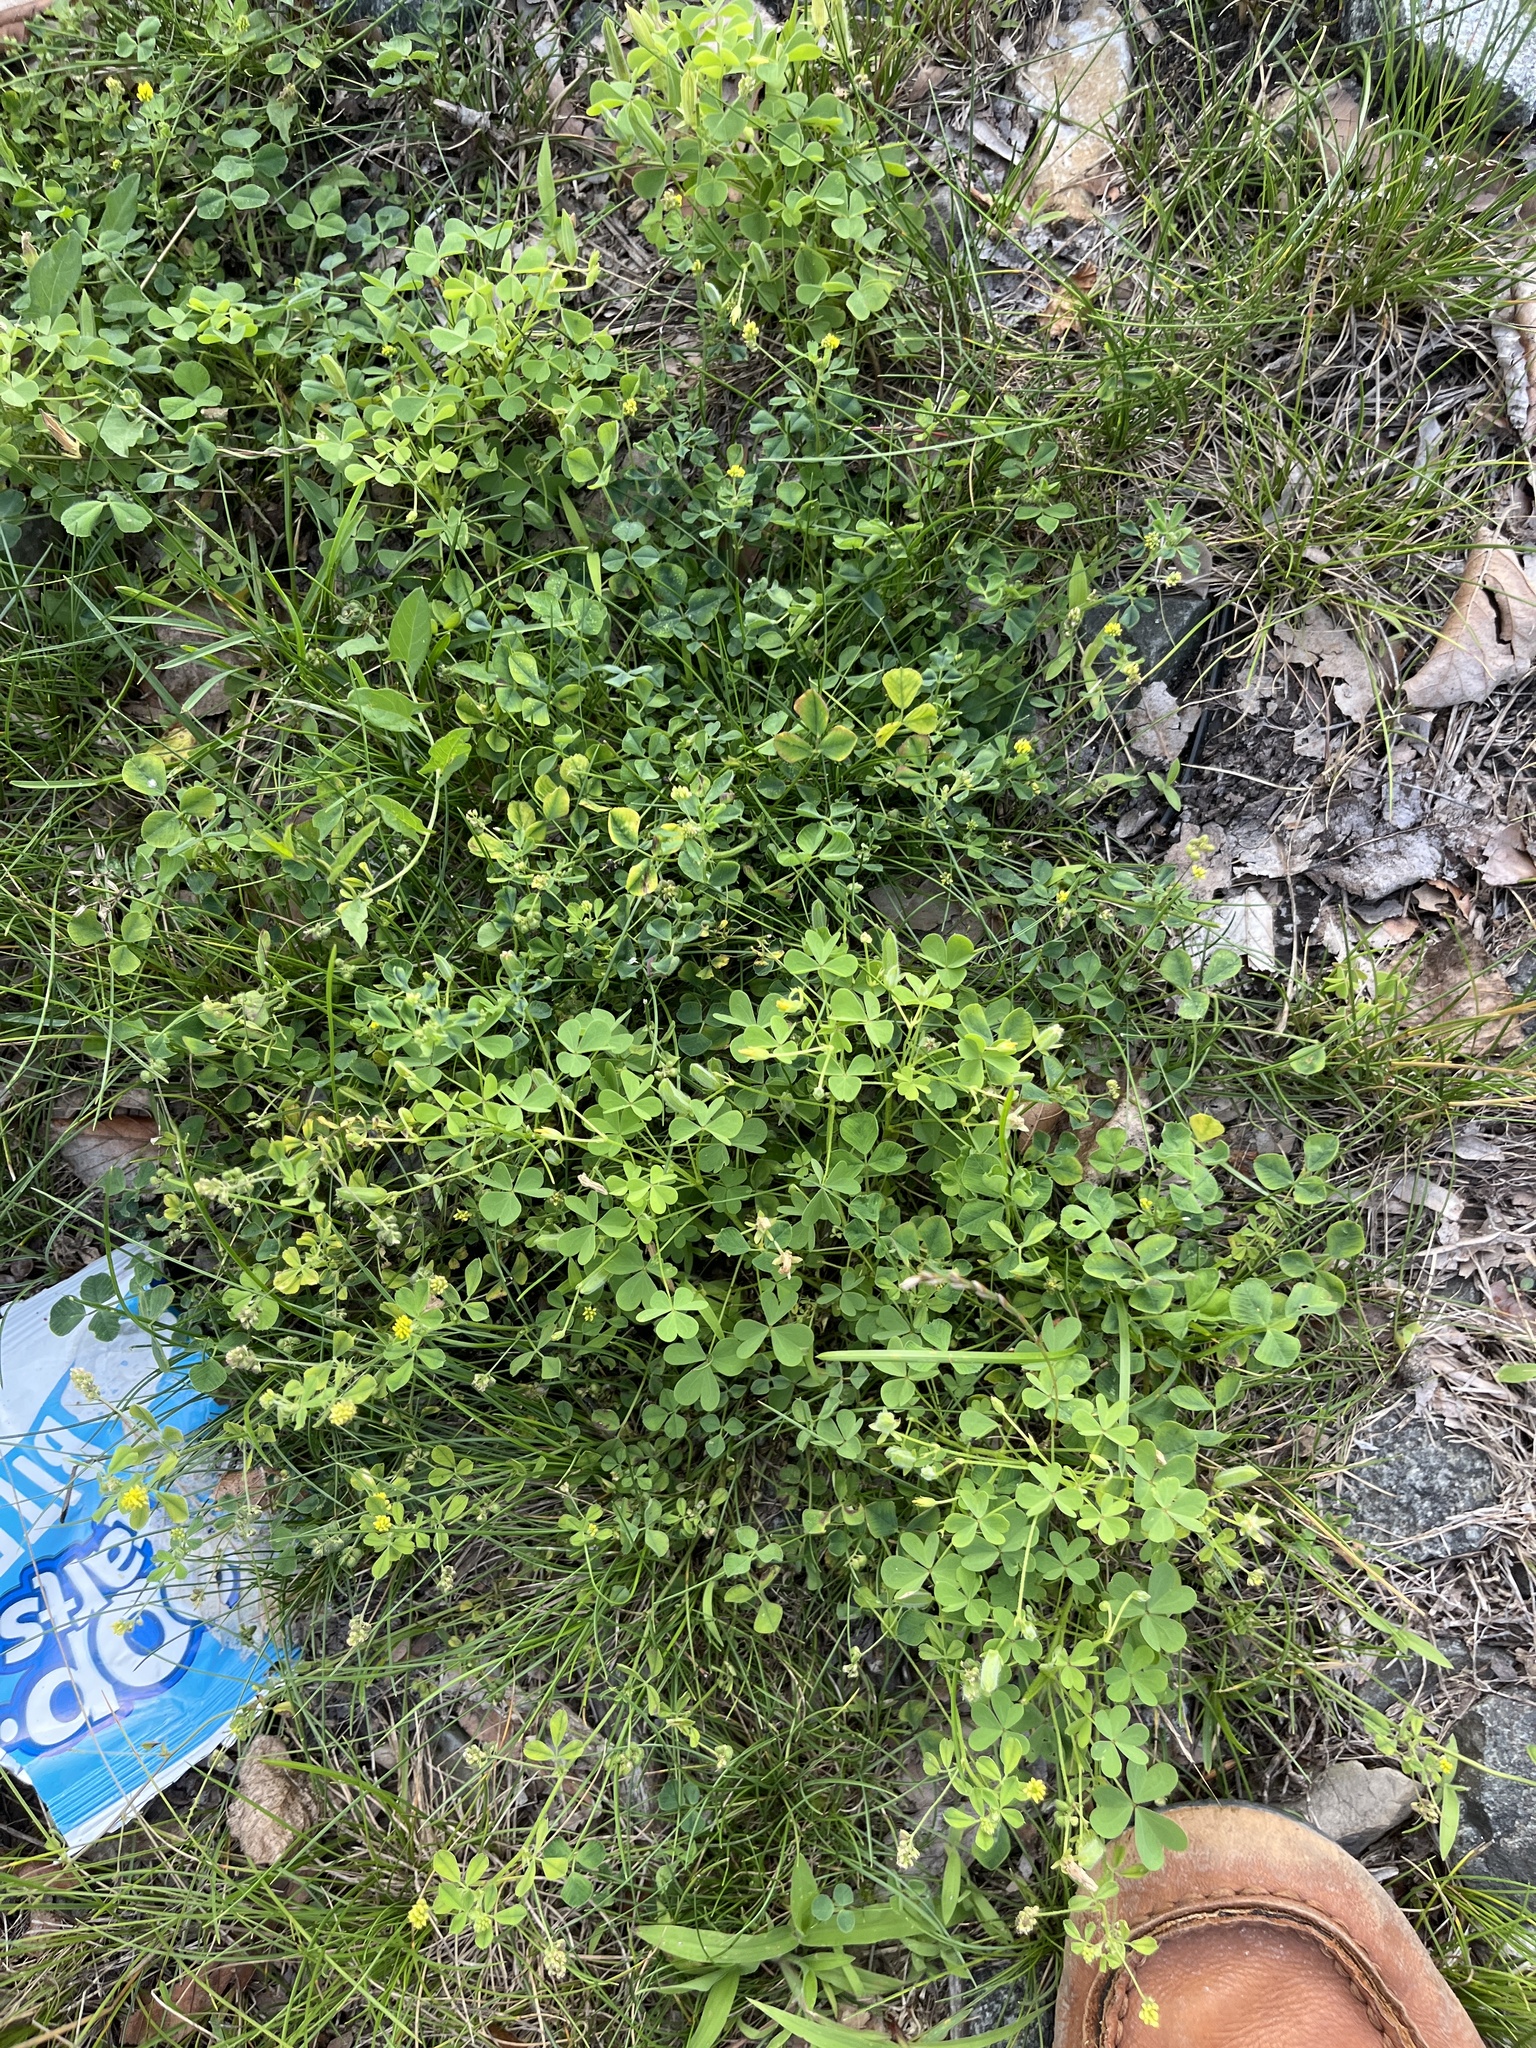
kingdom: Plantae
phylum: Tracheophyta
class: Magnoliopsida
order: Fabales
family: Fabaceae
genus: Medicago
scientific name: Medicago lupulina
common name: Black medick
